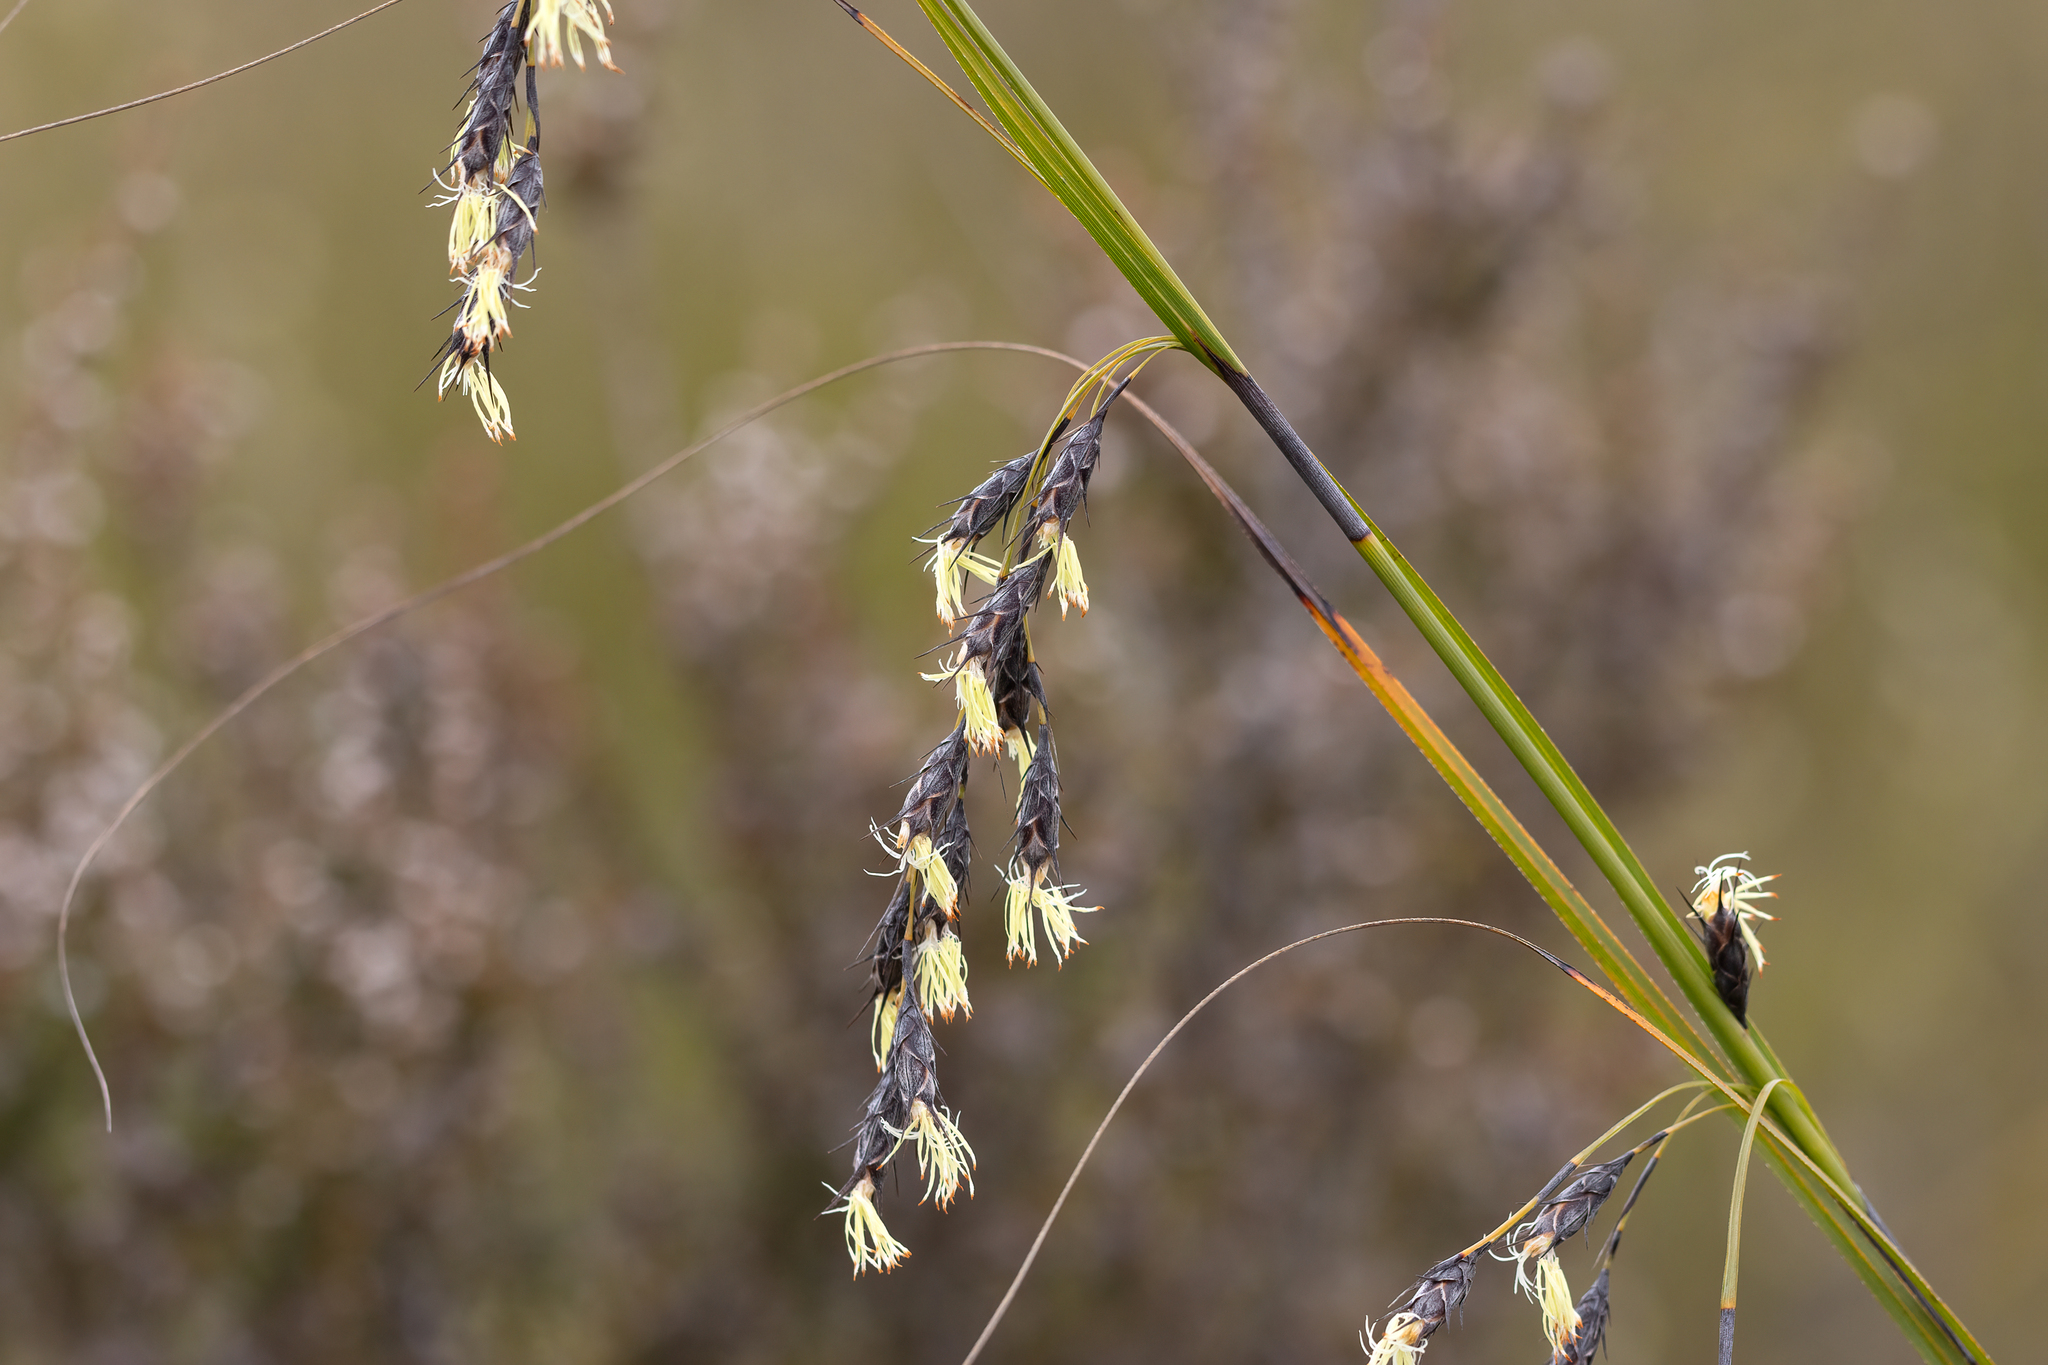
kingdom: Plantae
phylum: Tracheophyta
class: Liliopsida
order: Poales
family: Cyperaceae
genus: Evandra
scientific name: Evandra aristata
